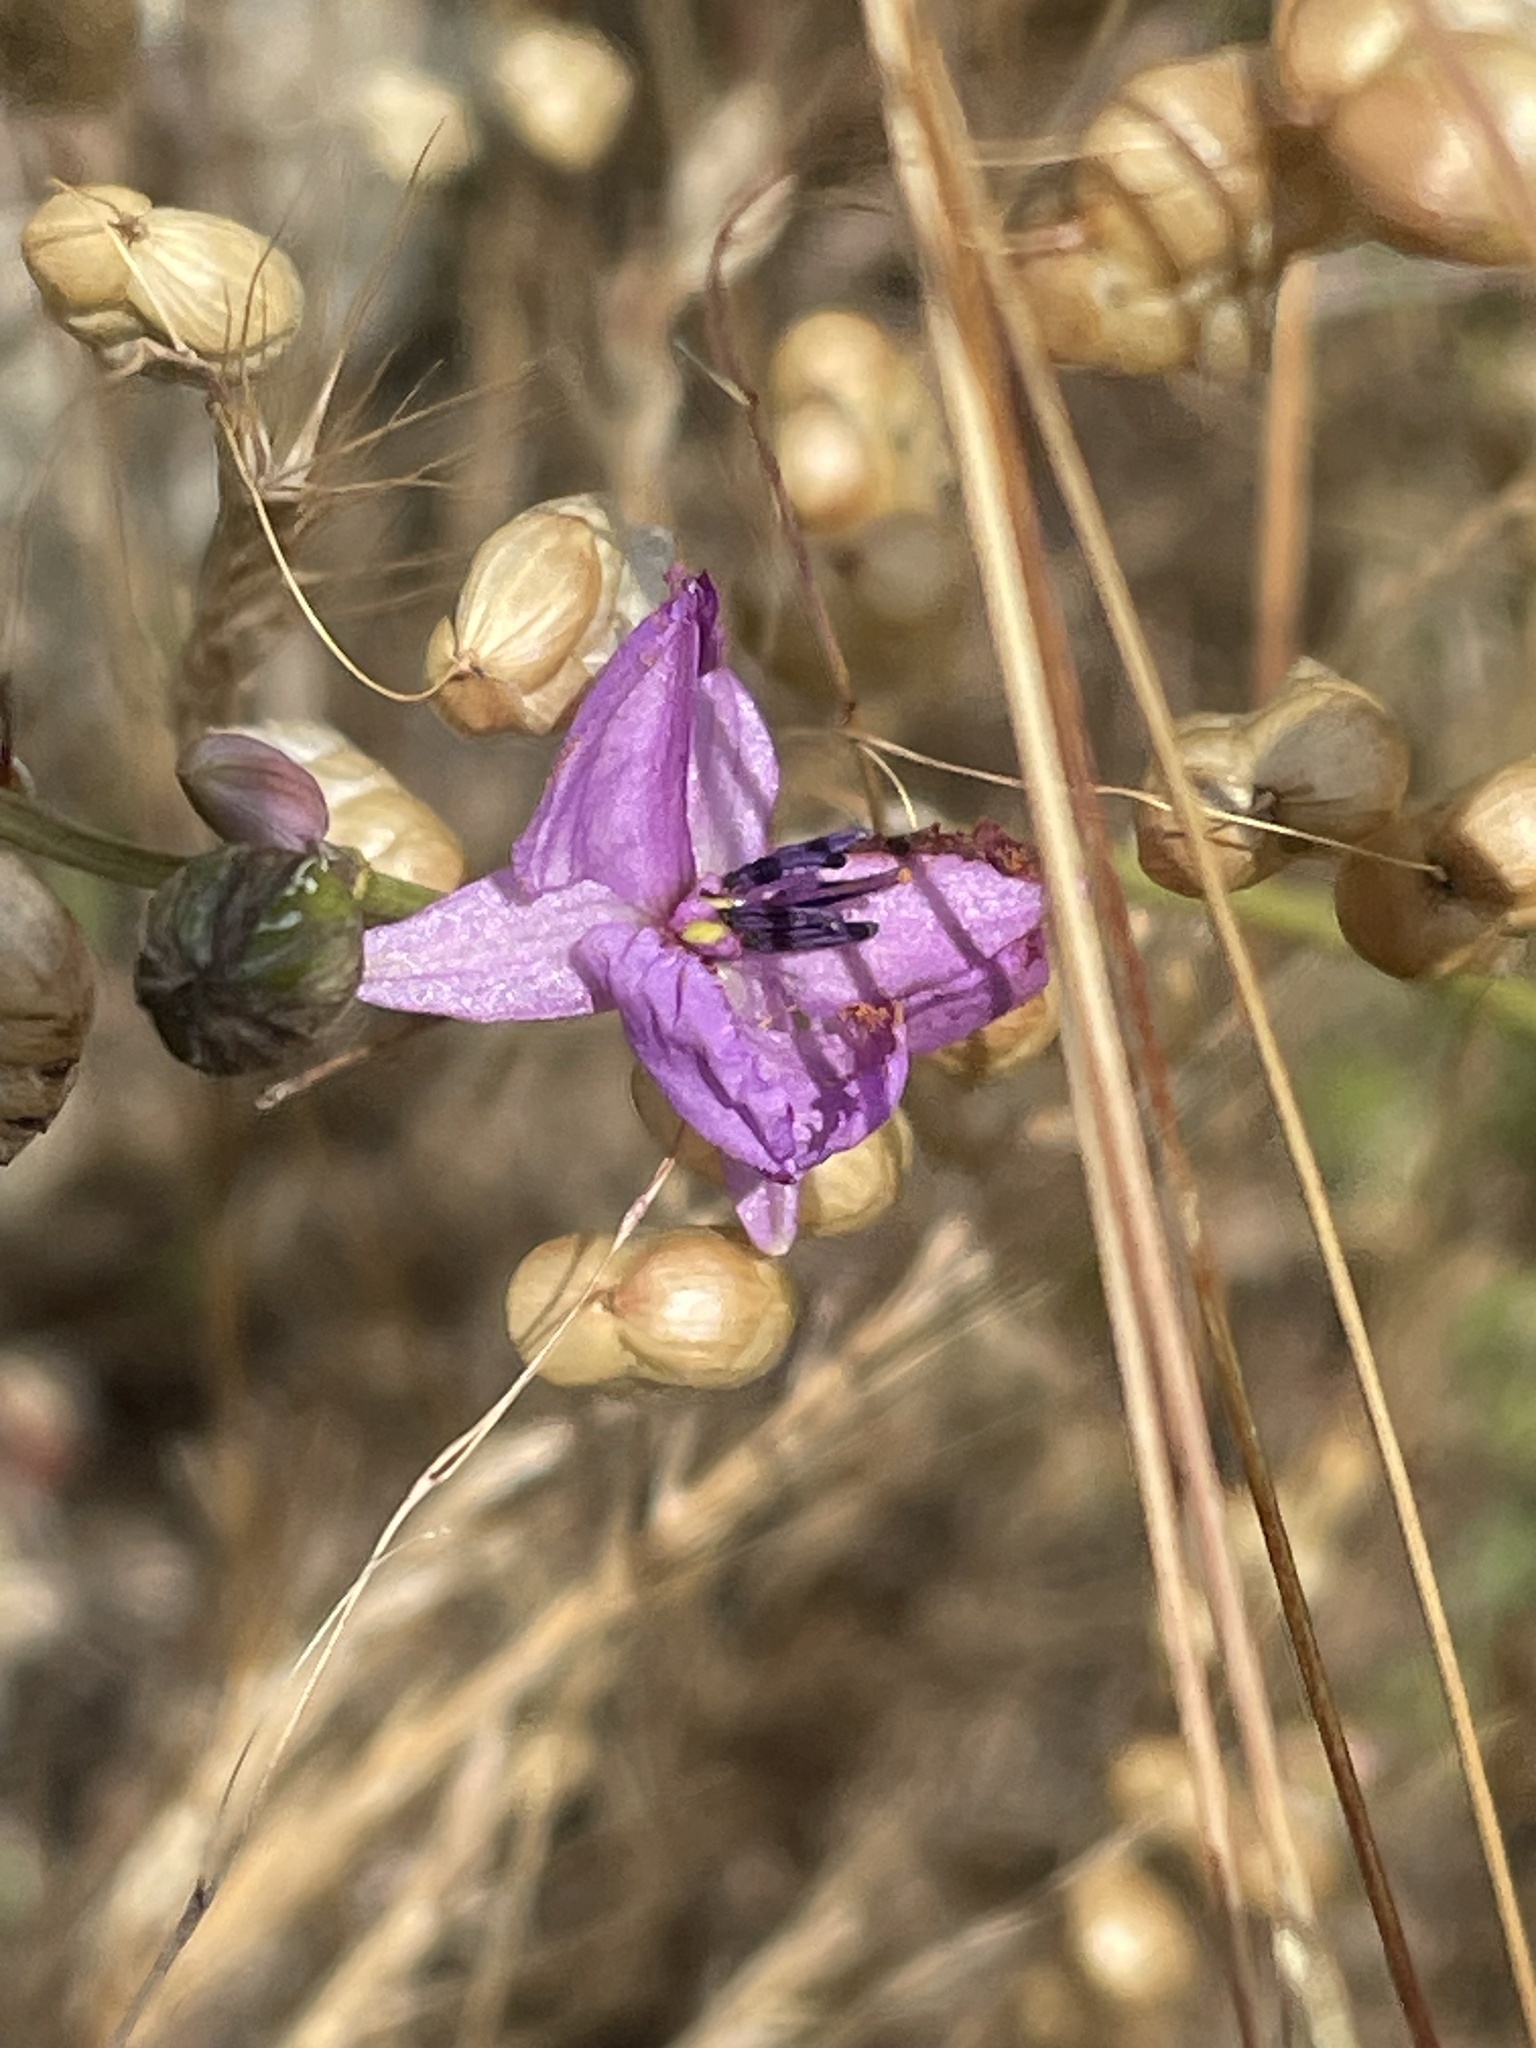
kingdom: Plantae
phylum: Tracheophyta
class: Liliopsida
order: Asparagales
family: Asparagaceae
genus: Arthropodium
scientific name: Arthropodium strictum
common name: Chocolate-lily
